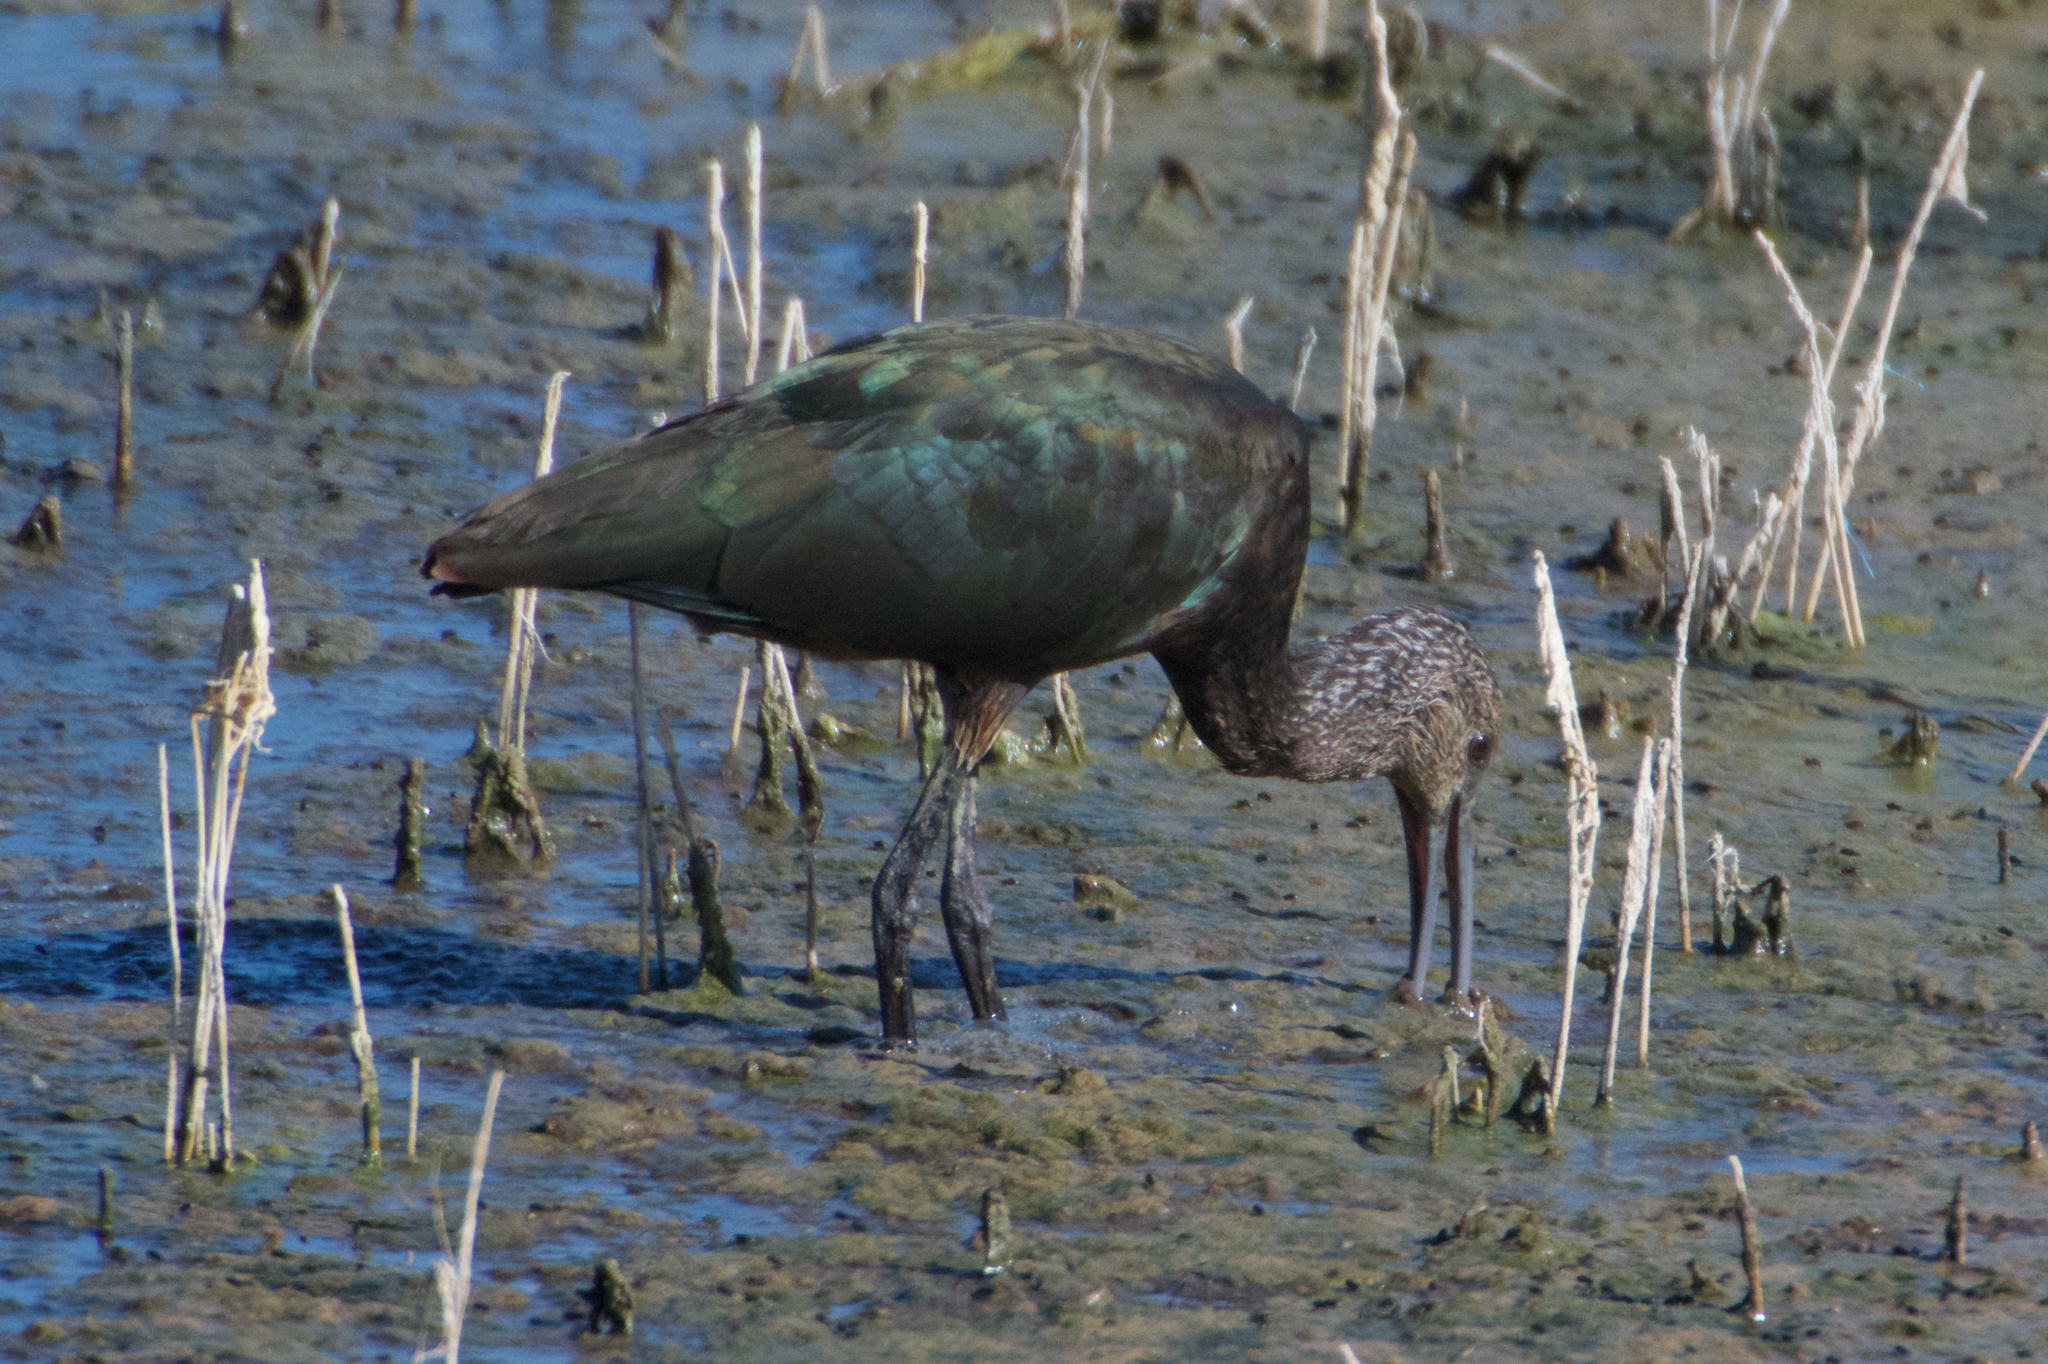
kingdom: Animalia
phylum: Chordata
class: Aves
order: Pelecaniformes
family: Threskiornithidae
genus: Plegadis
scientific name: Plegadis chihi
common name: White-faced ibis
